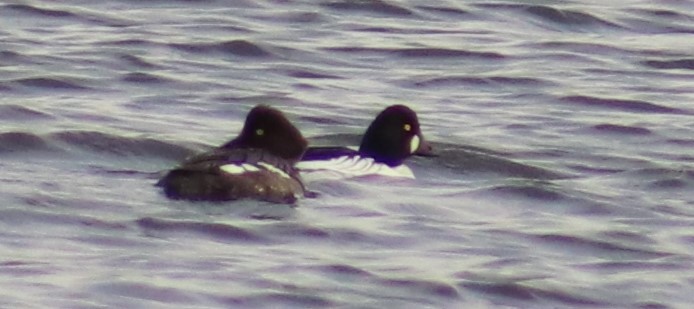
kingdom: Animalia
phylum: Chordata
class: Aves
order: Anseriformes
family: Anatidae
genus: Bucephala
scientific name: Bucephala clangula
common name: Common goldeneye
